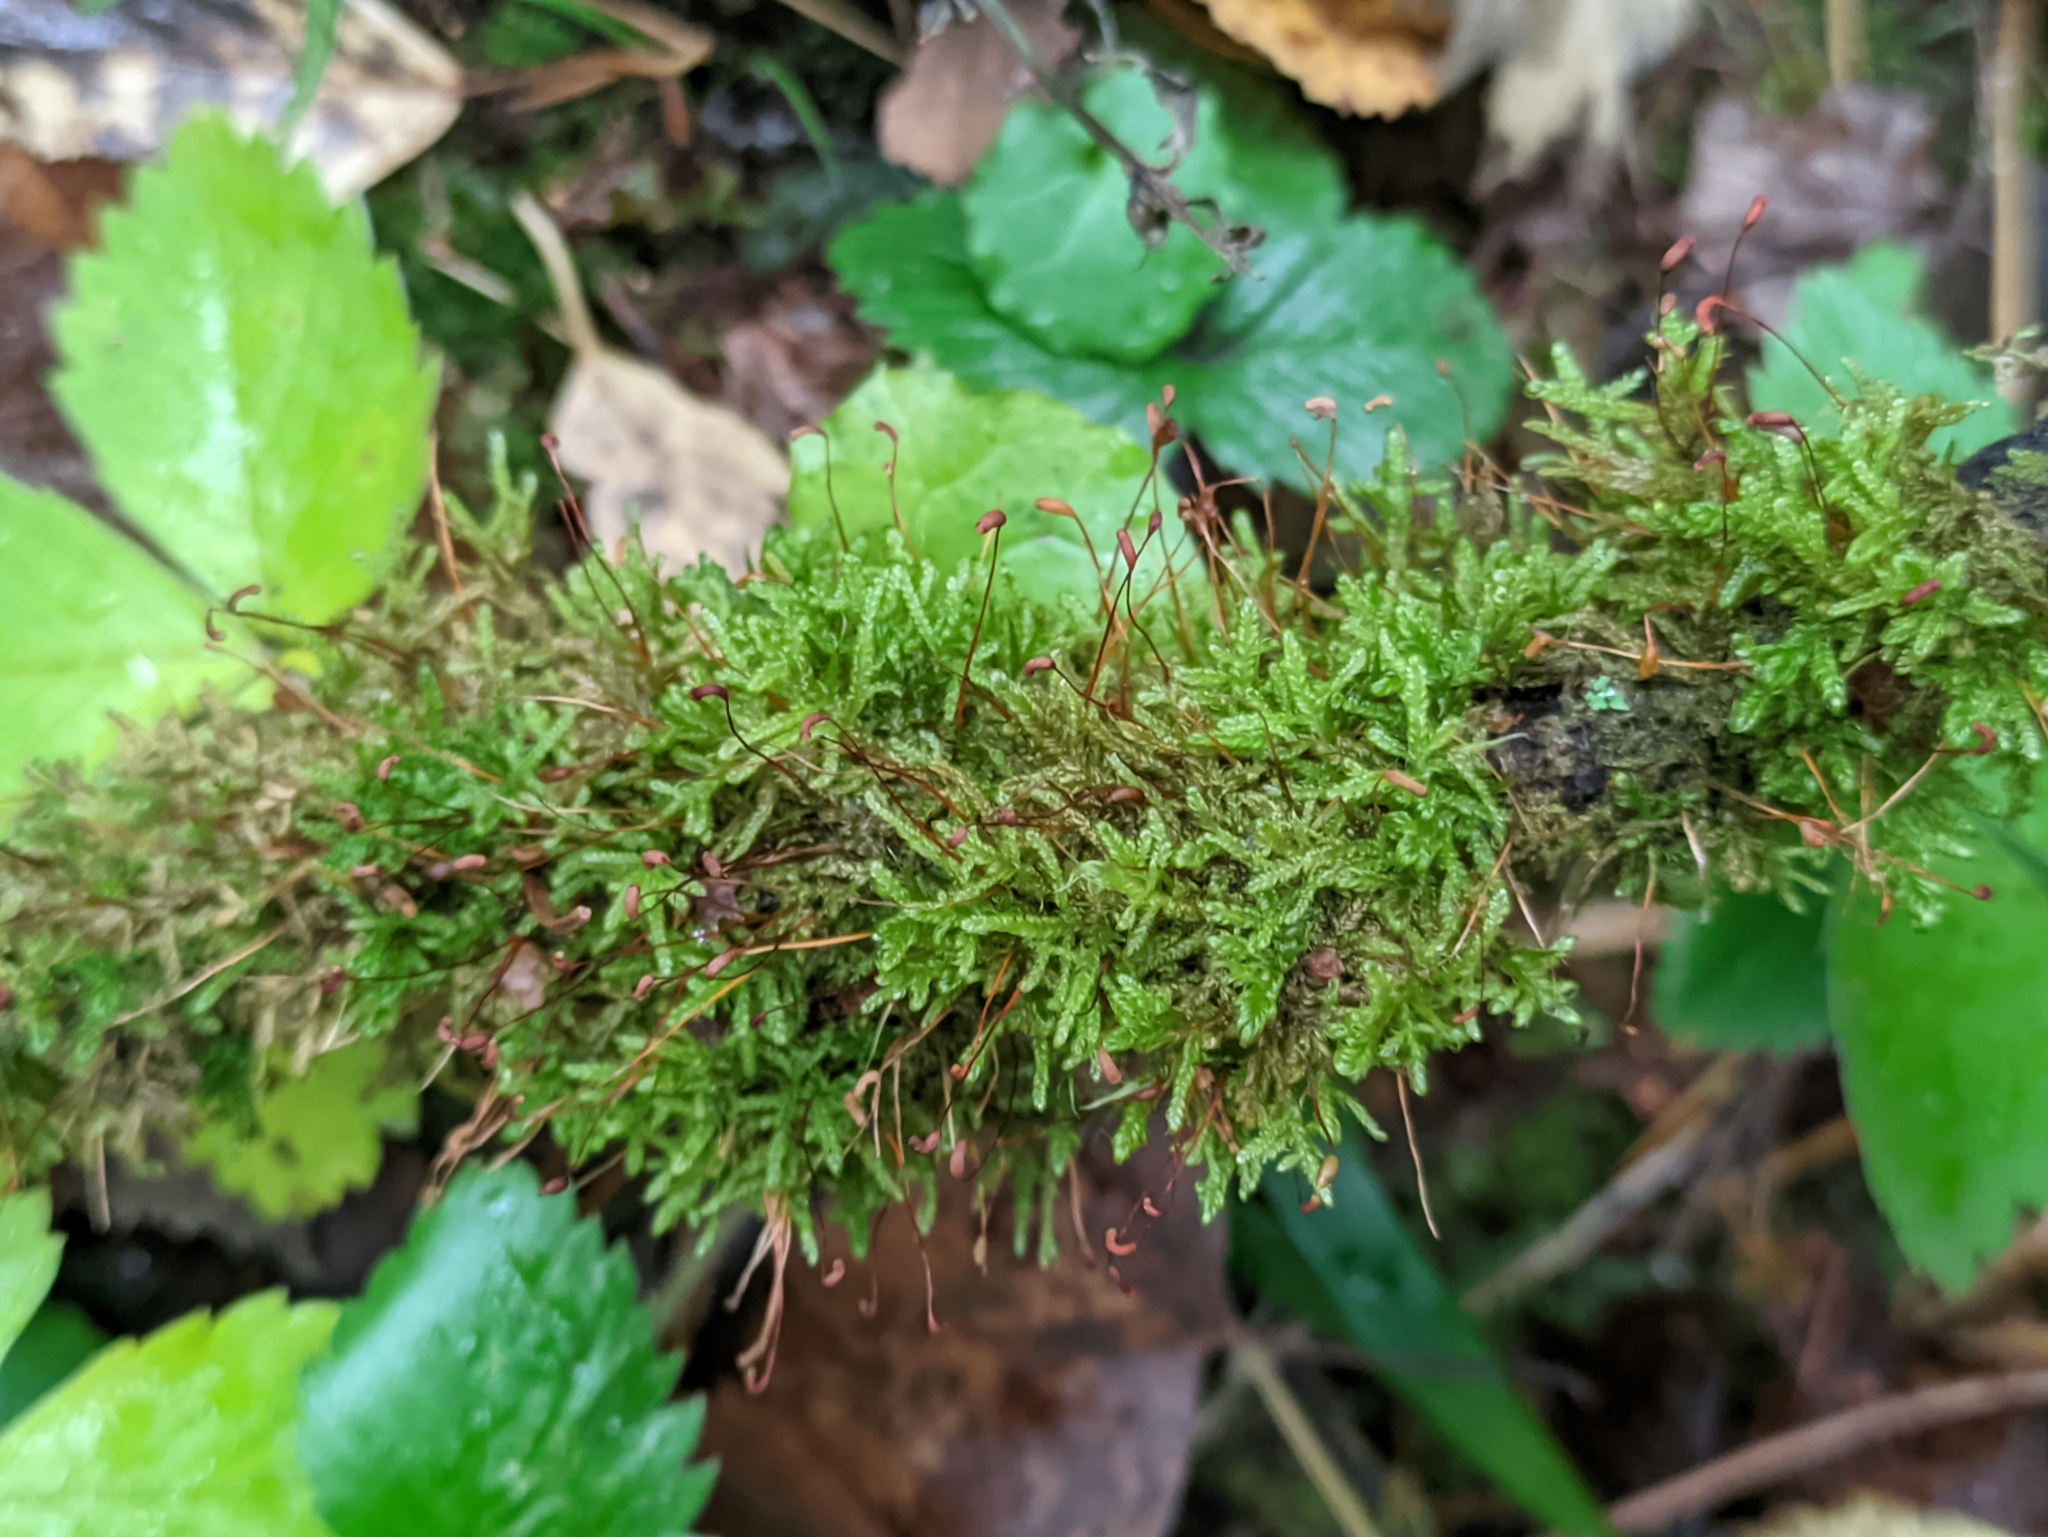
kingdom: Plantae
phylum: Bryophyta
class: Bryopsida
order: Hypnales
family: Scorpidiaceae
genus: Sanionia
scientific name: Sanionia uncinata
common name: Sickle moss
